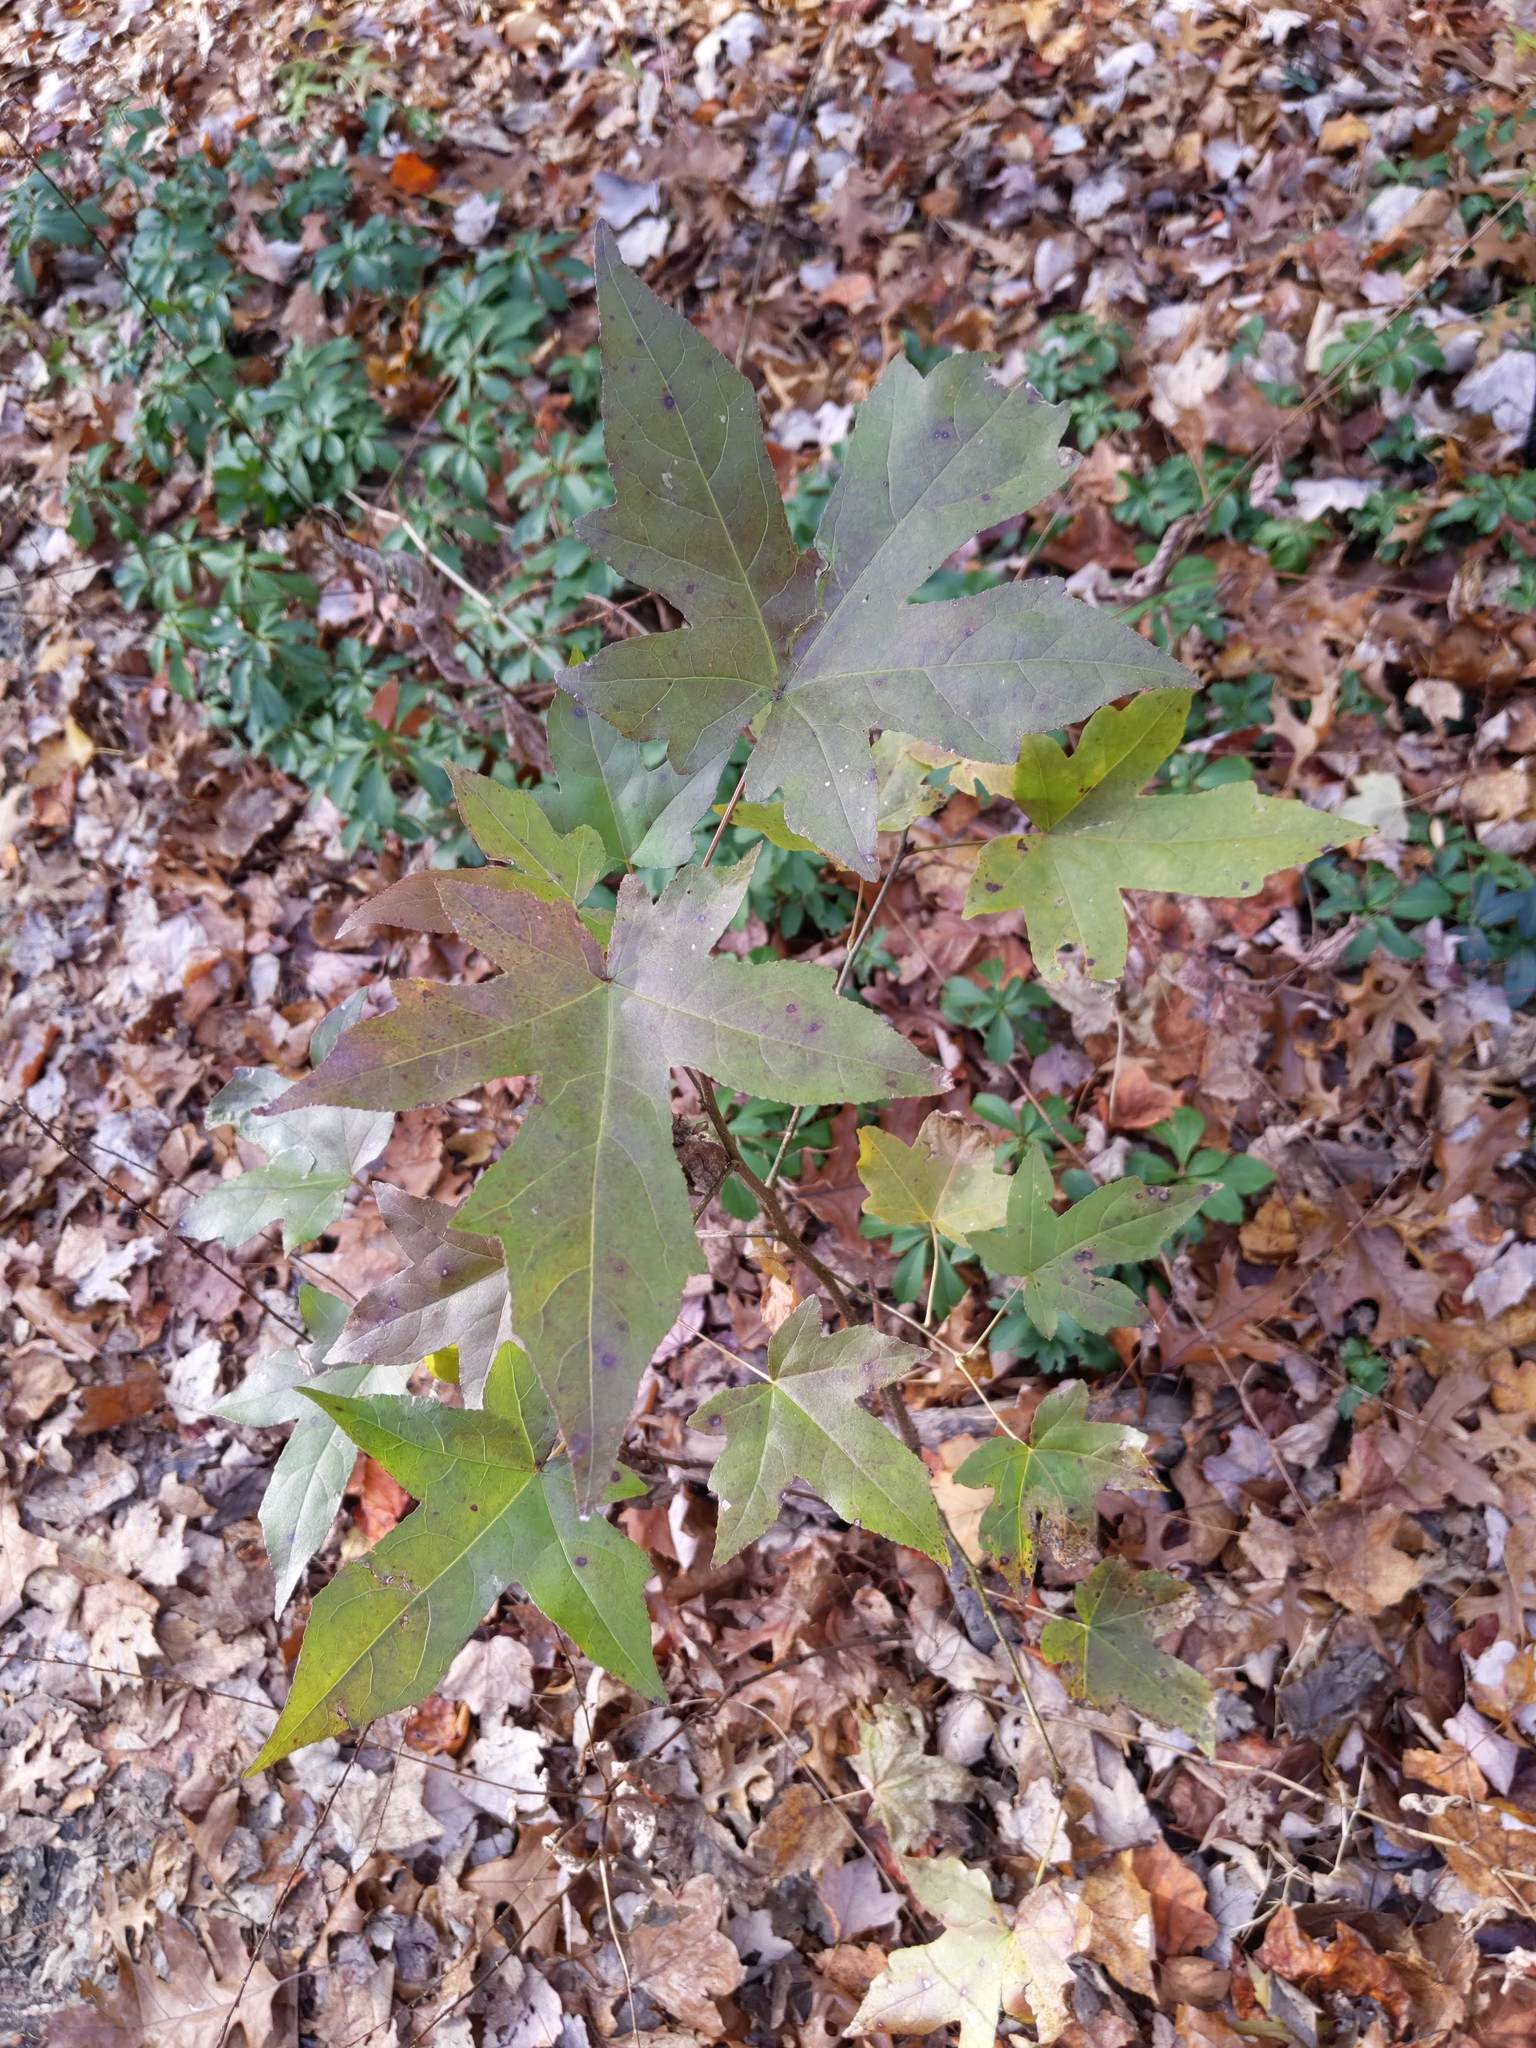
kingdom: Plantae
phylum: Tracheophyta
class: Magnoliopsida
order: Saxifragales
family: Altingiaceae
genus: Liquidambar
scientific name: Liquidambar styraciflua
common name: Sweet gum
